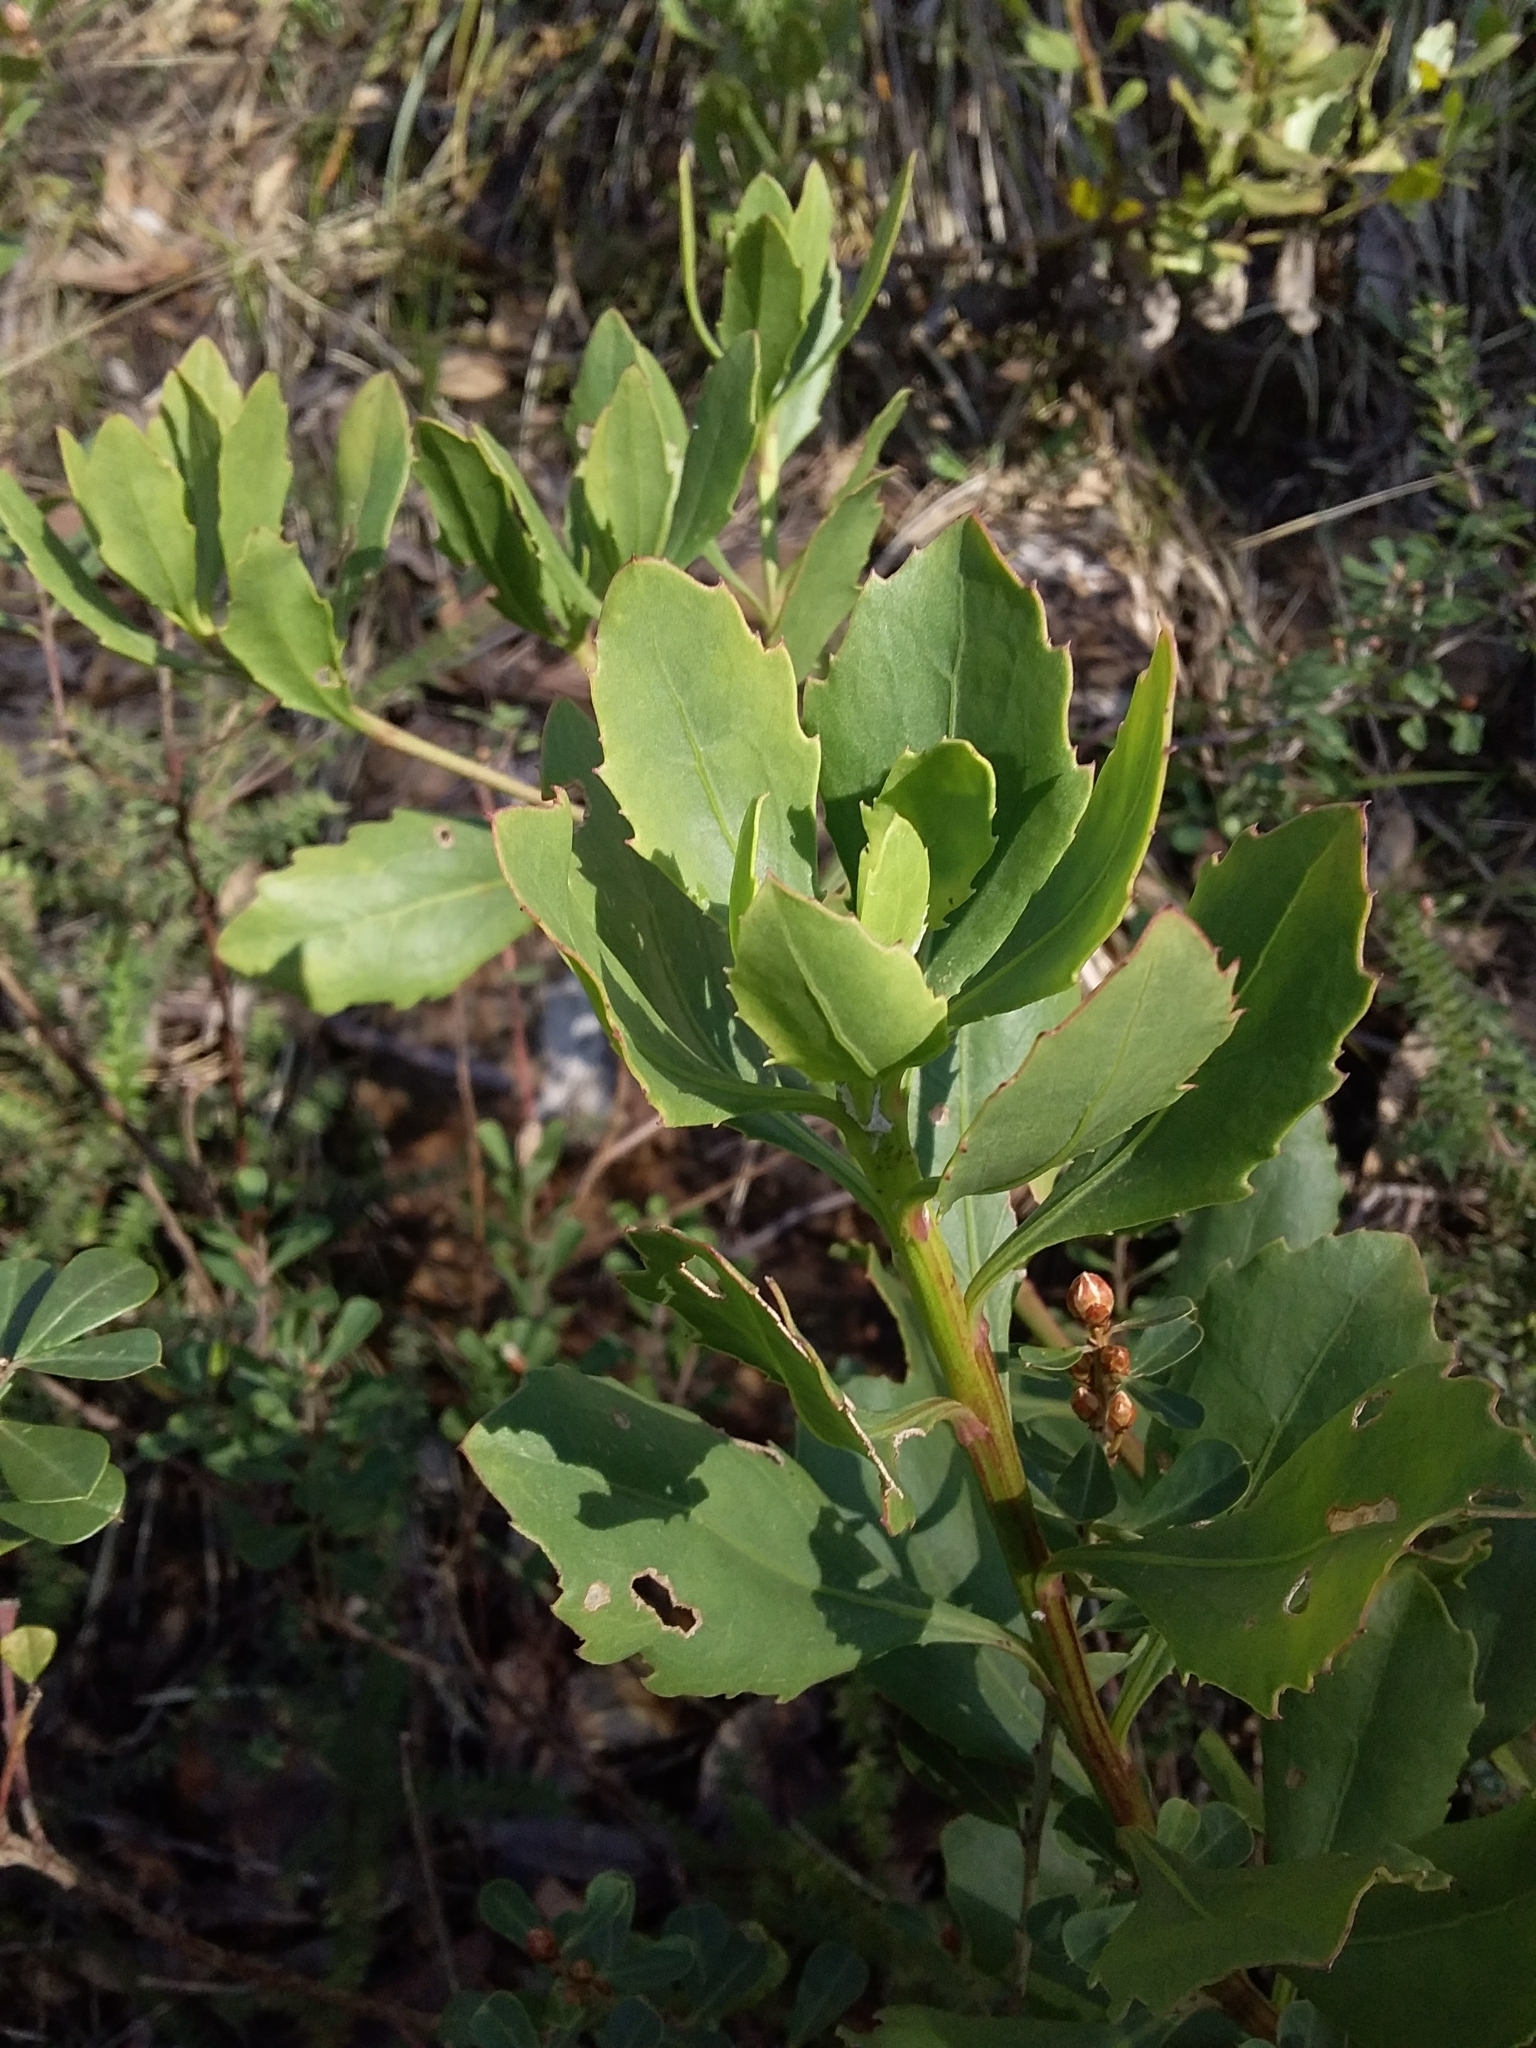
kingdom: Plantae
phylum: Tracheophyta
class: Magnoliopsida
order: Asterales
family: Asteraceae
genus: Osteospermum
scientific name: Osteospermum moniliferum
